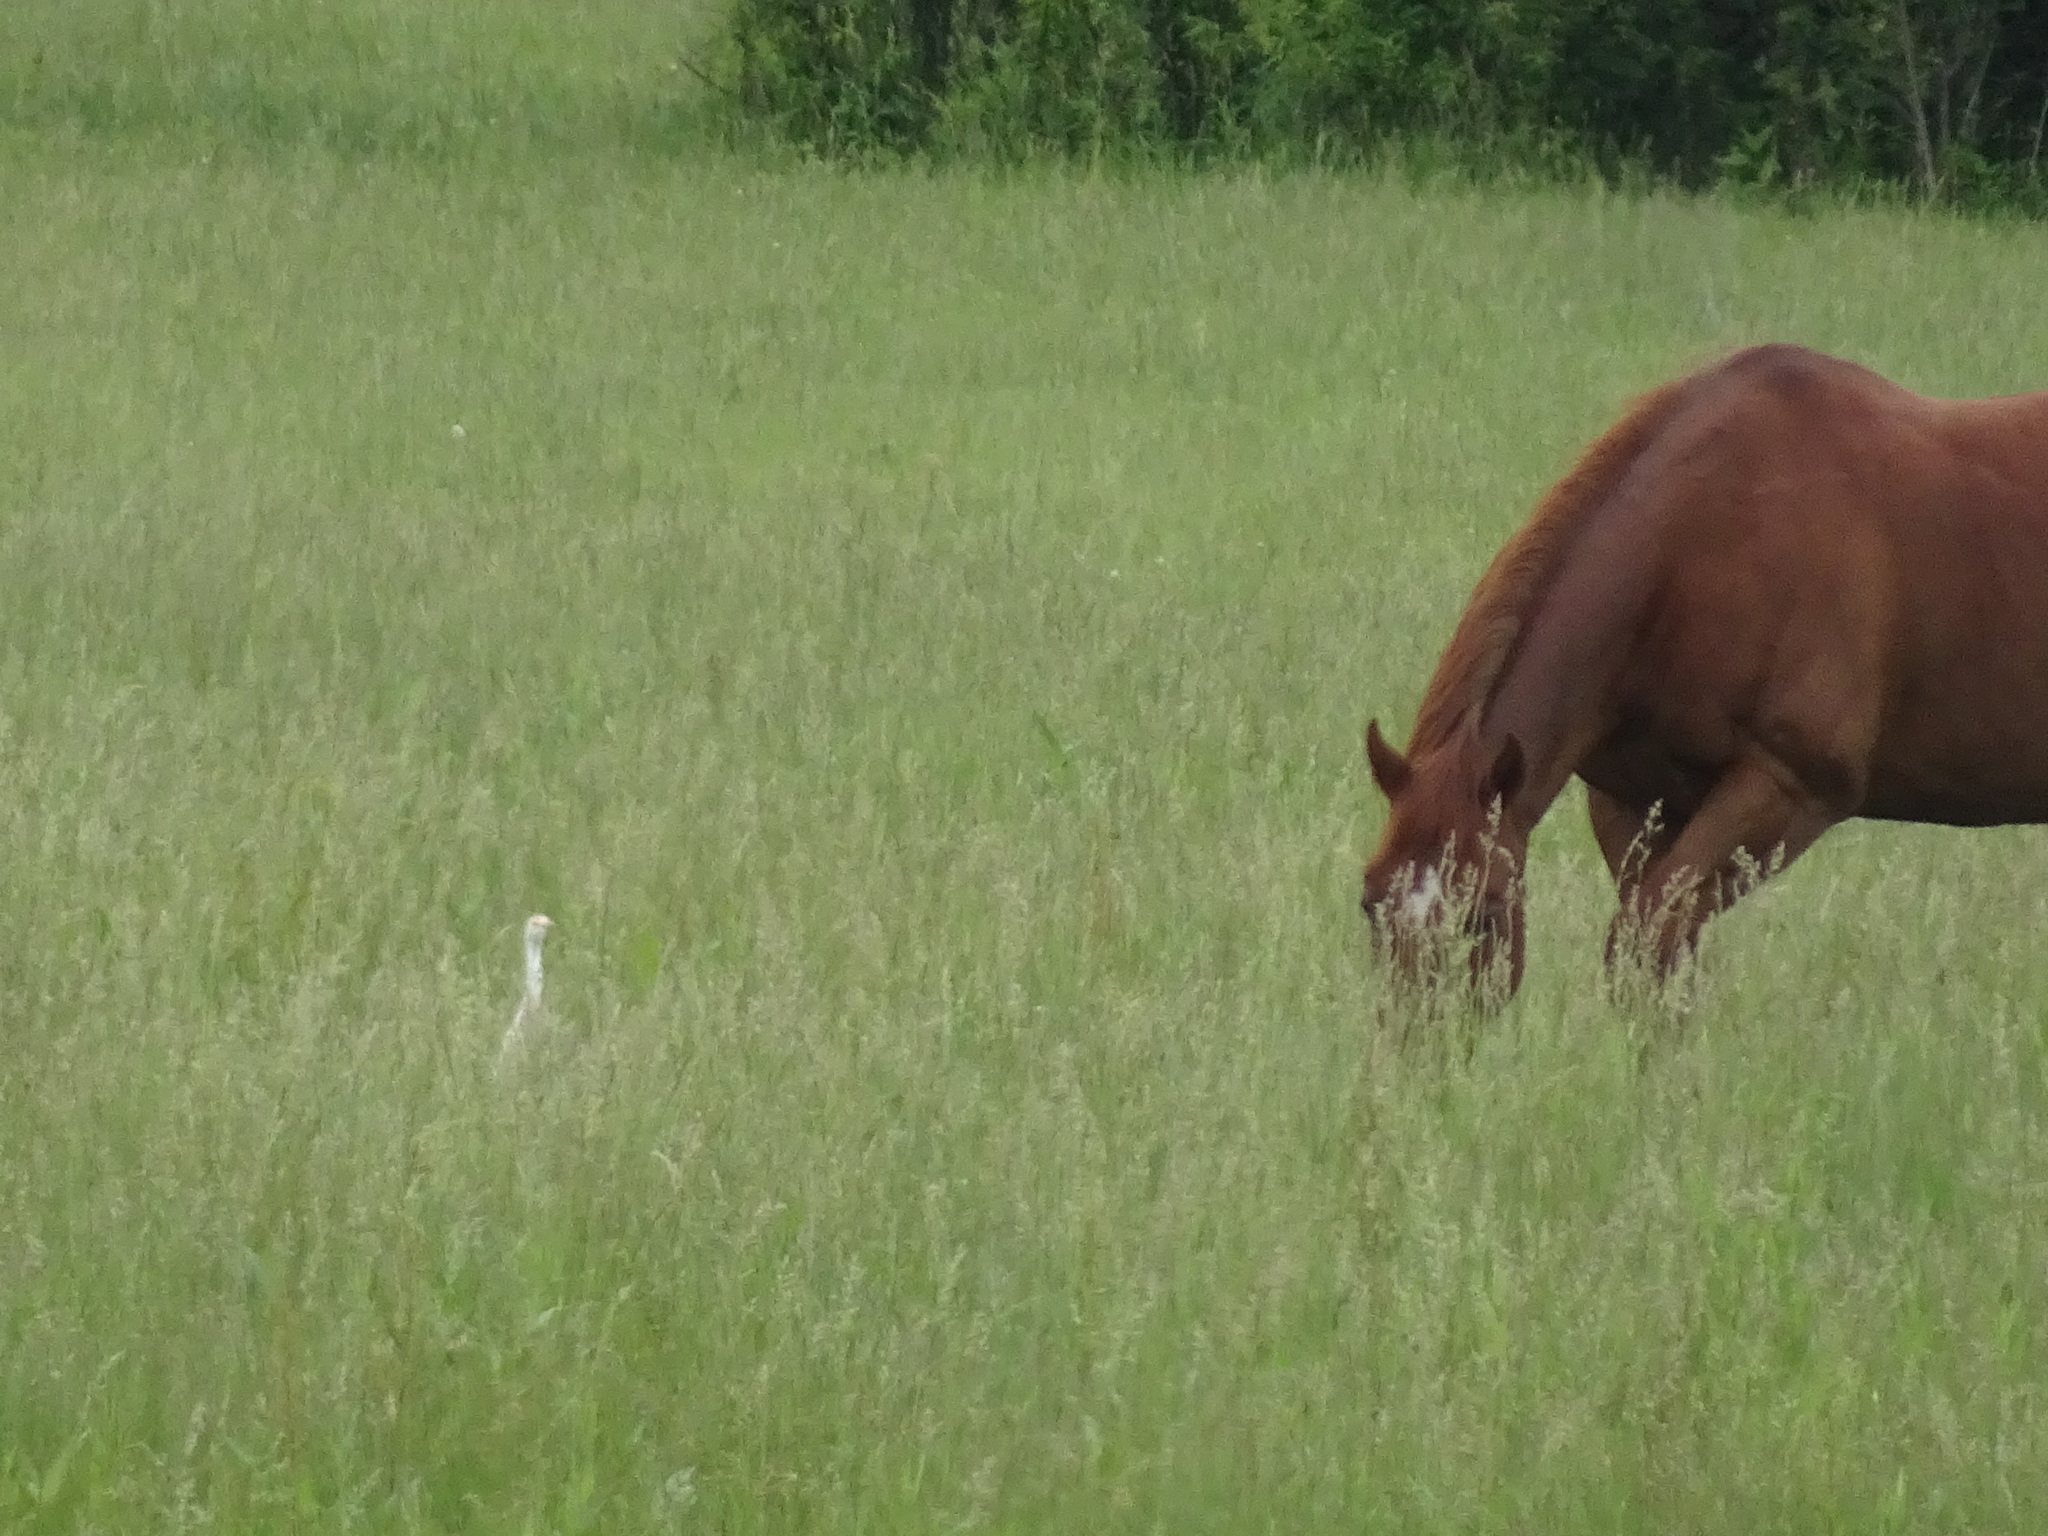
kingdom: Animalia
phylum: Chordata
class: Aves
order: Pelecaniformes
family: Ardeidae
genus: Bubulcus
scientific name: Bubulcus ibis
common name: Cattle egret
